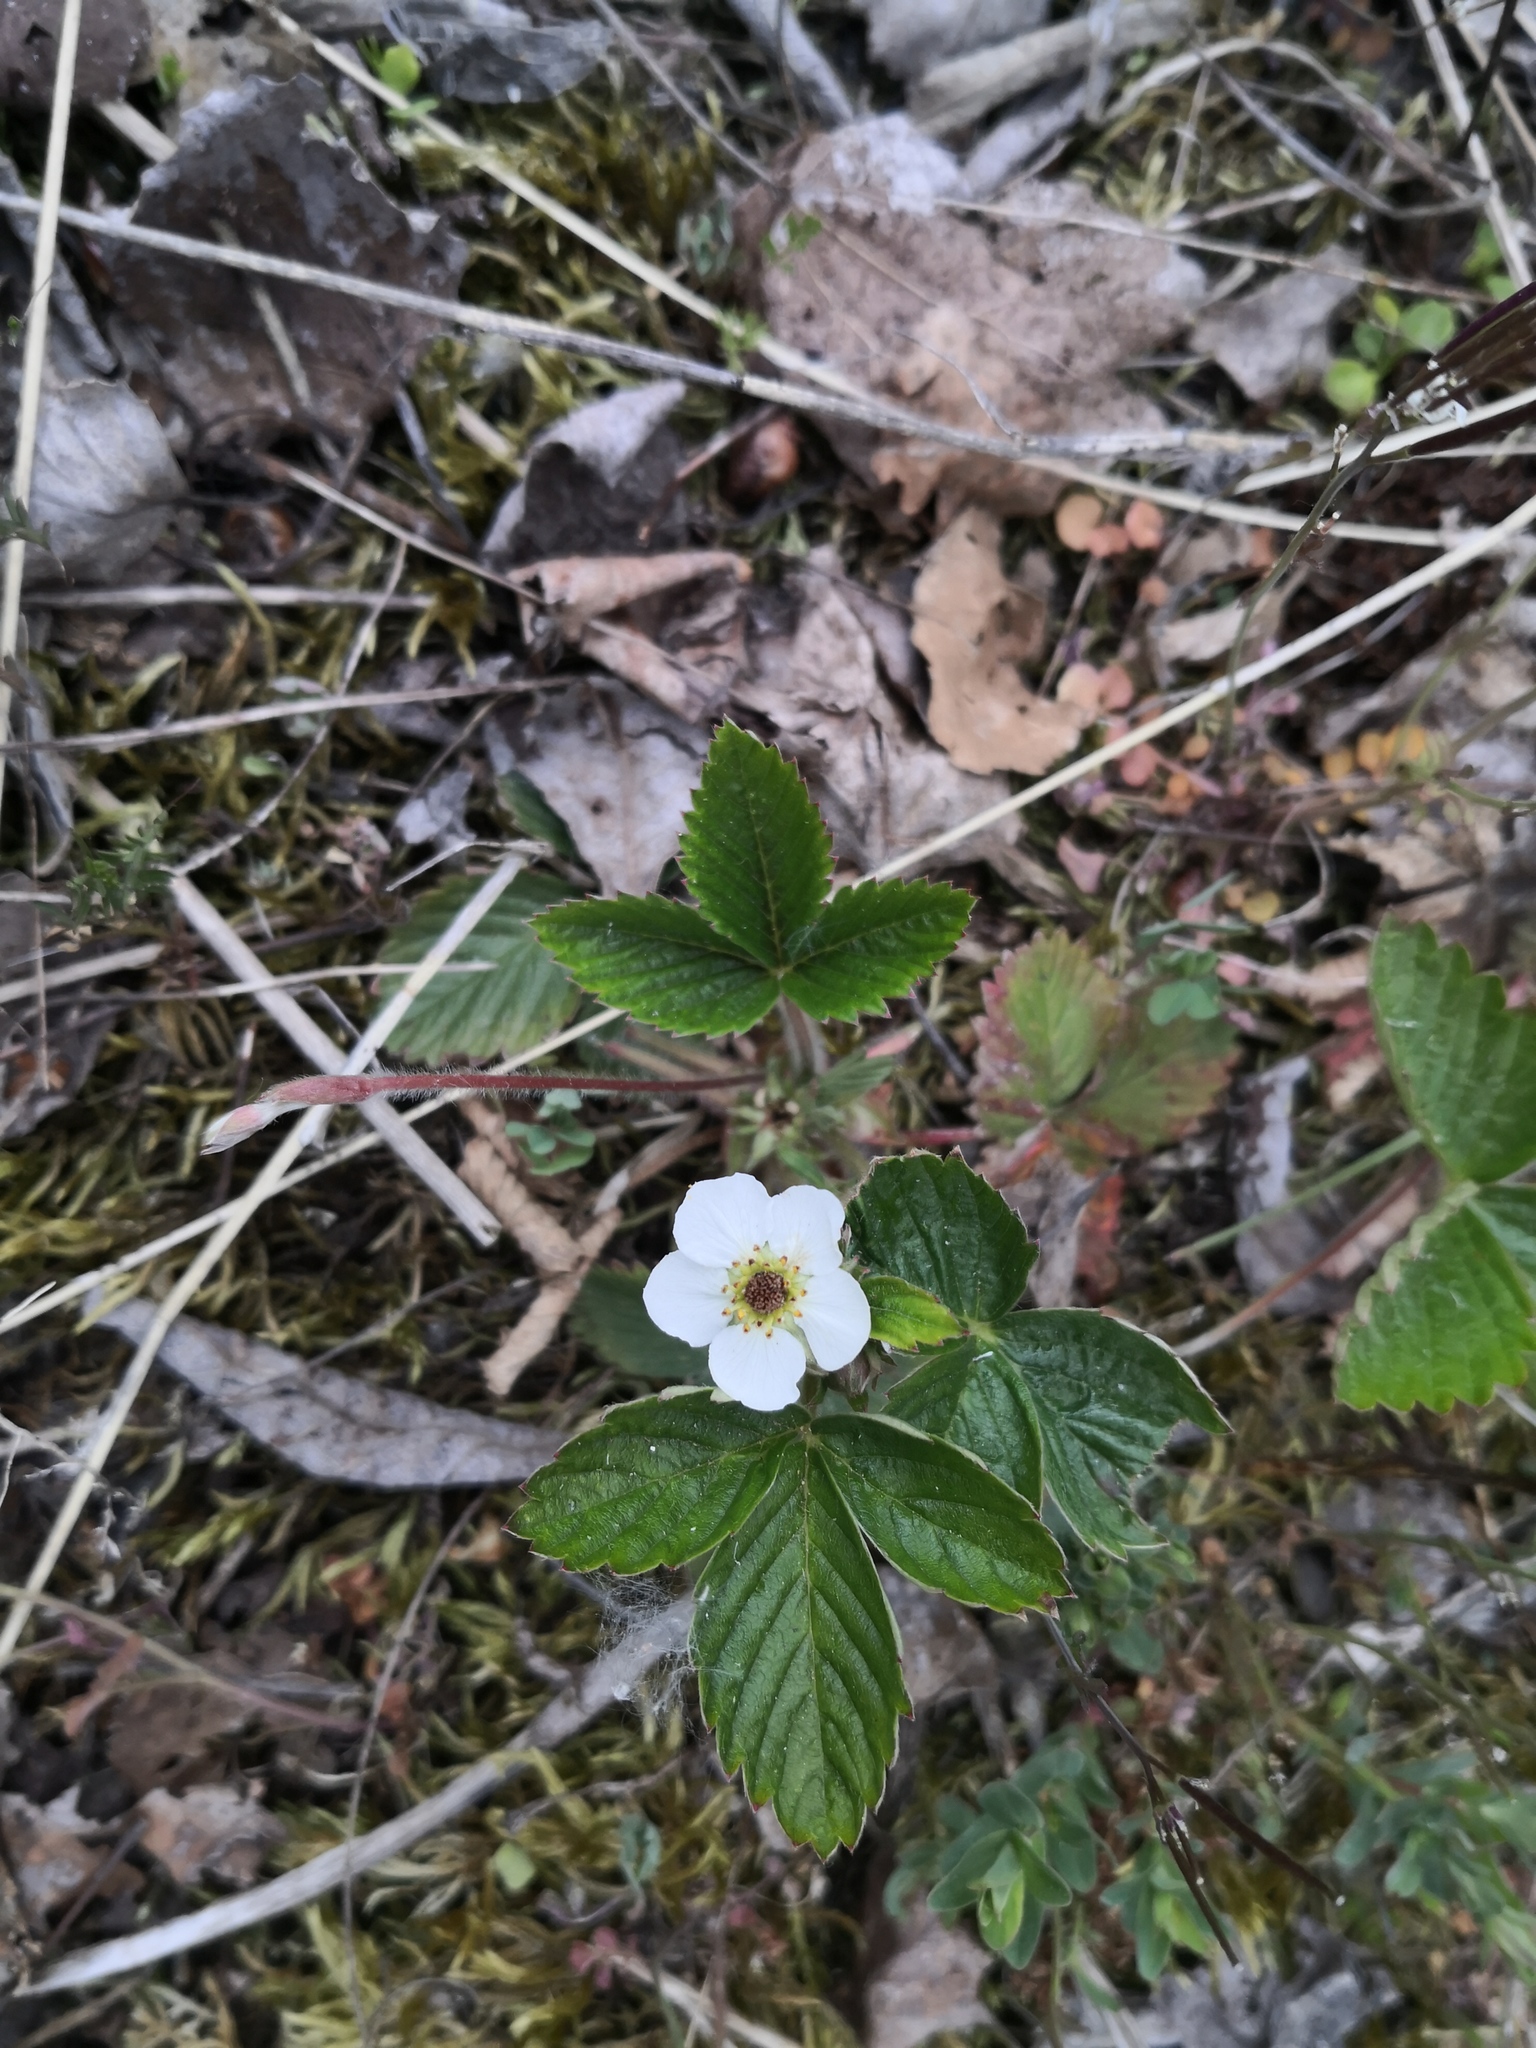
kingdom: Plantae
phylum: Tracheophyta
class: Magnoliopsida
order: Rosales
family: Rosaceae
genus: Fragaria
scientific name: Fragaria vesca
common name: Wild strawberry
